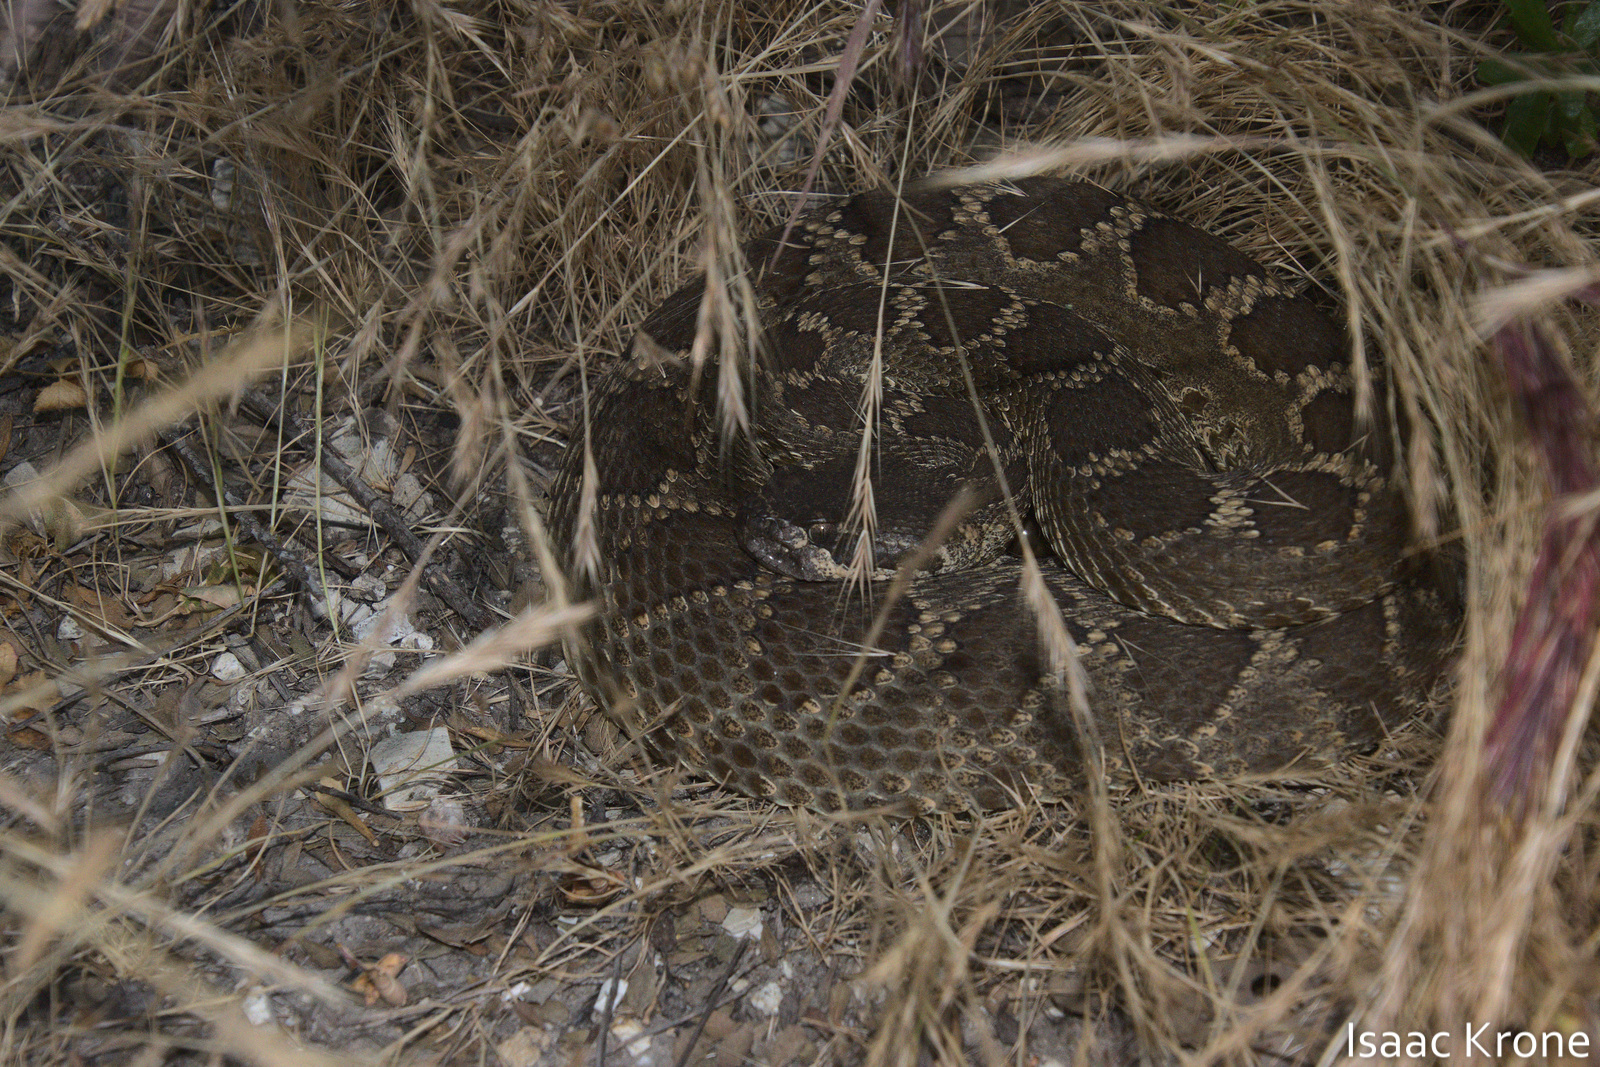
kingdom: Animalia
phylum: Chordata
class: Squamata
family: Viperidae
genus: Crotalus
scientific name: Crotalus oreganus
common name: Abyssus
